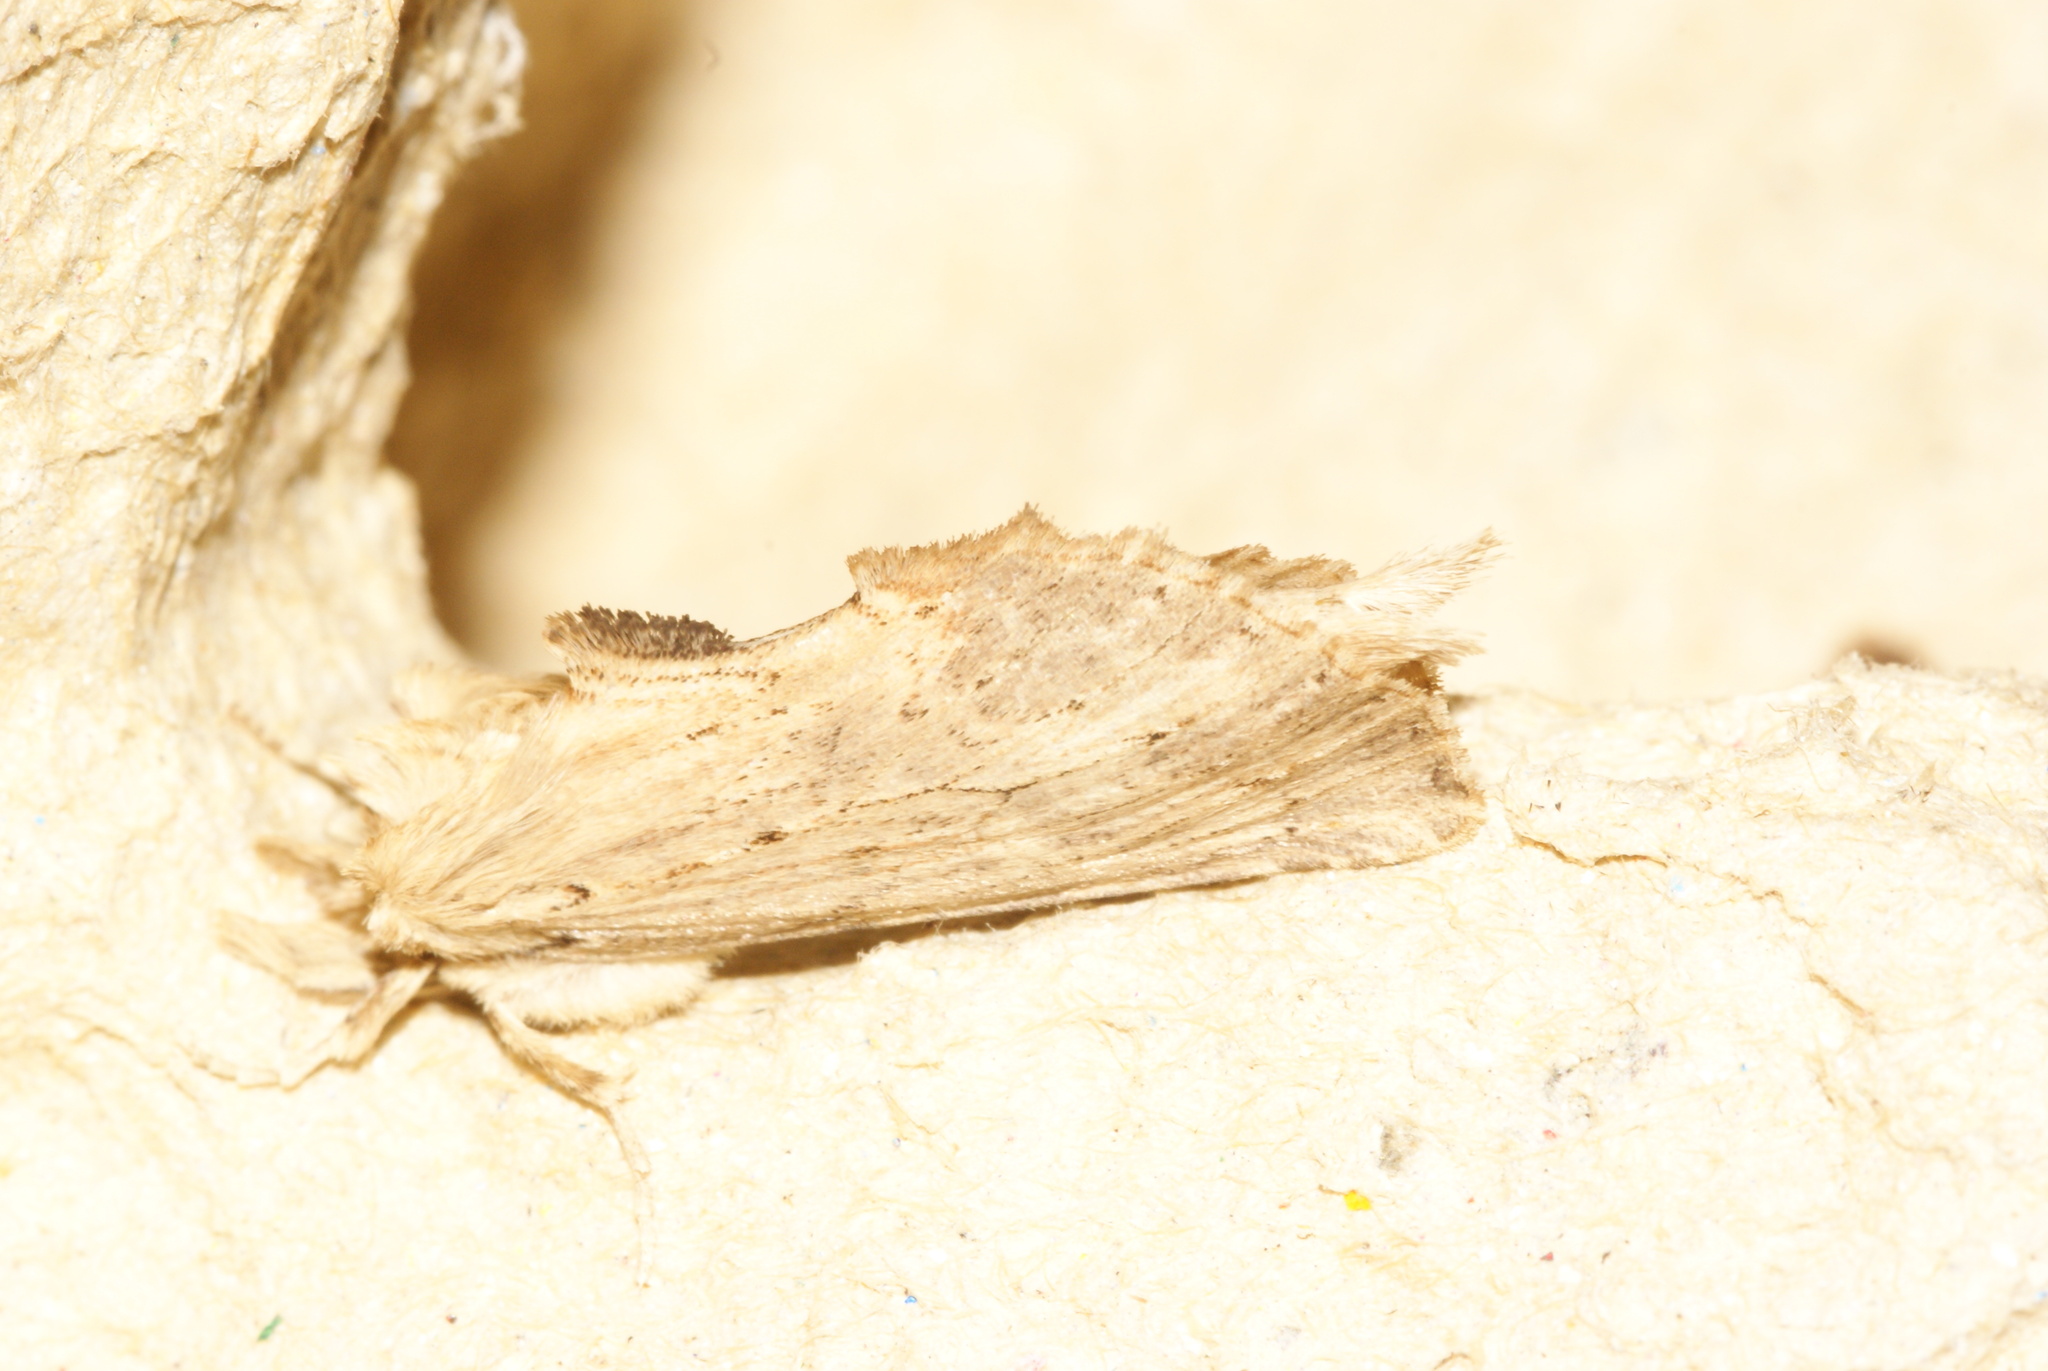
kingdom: Animalia
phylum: Arthropoda
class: Insecta
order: Lepidoptera
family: Notodontidae
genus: Pterostoma
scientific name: Pterostoma palpina
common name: Pale prominent
